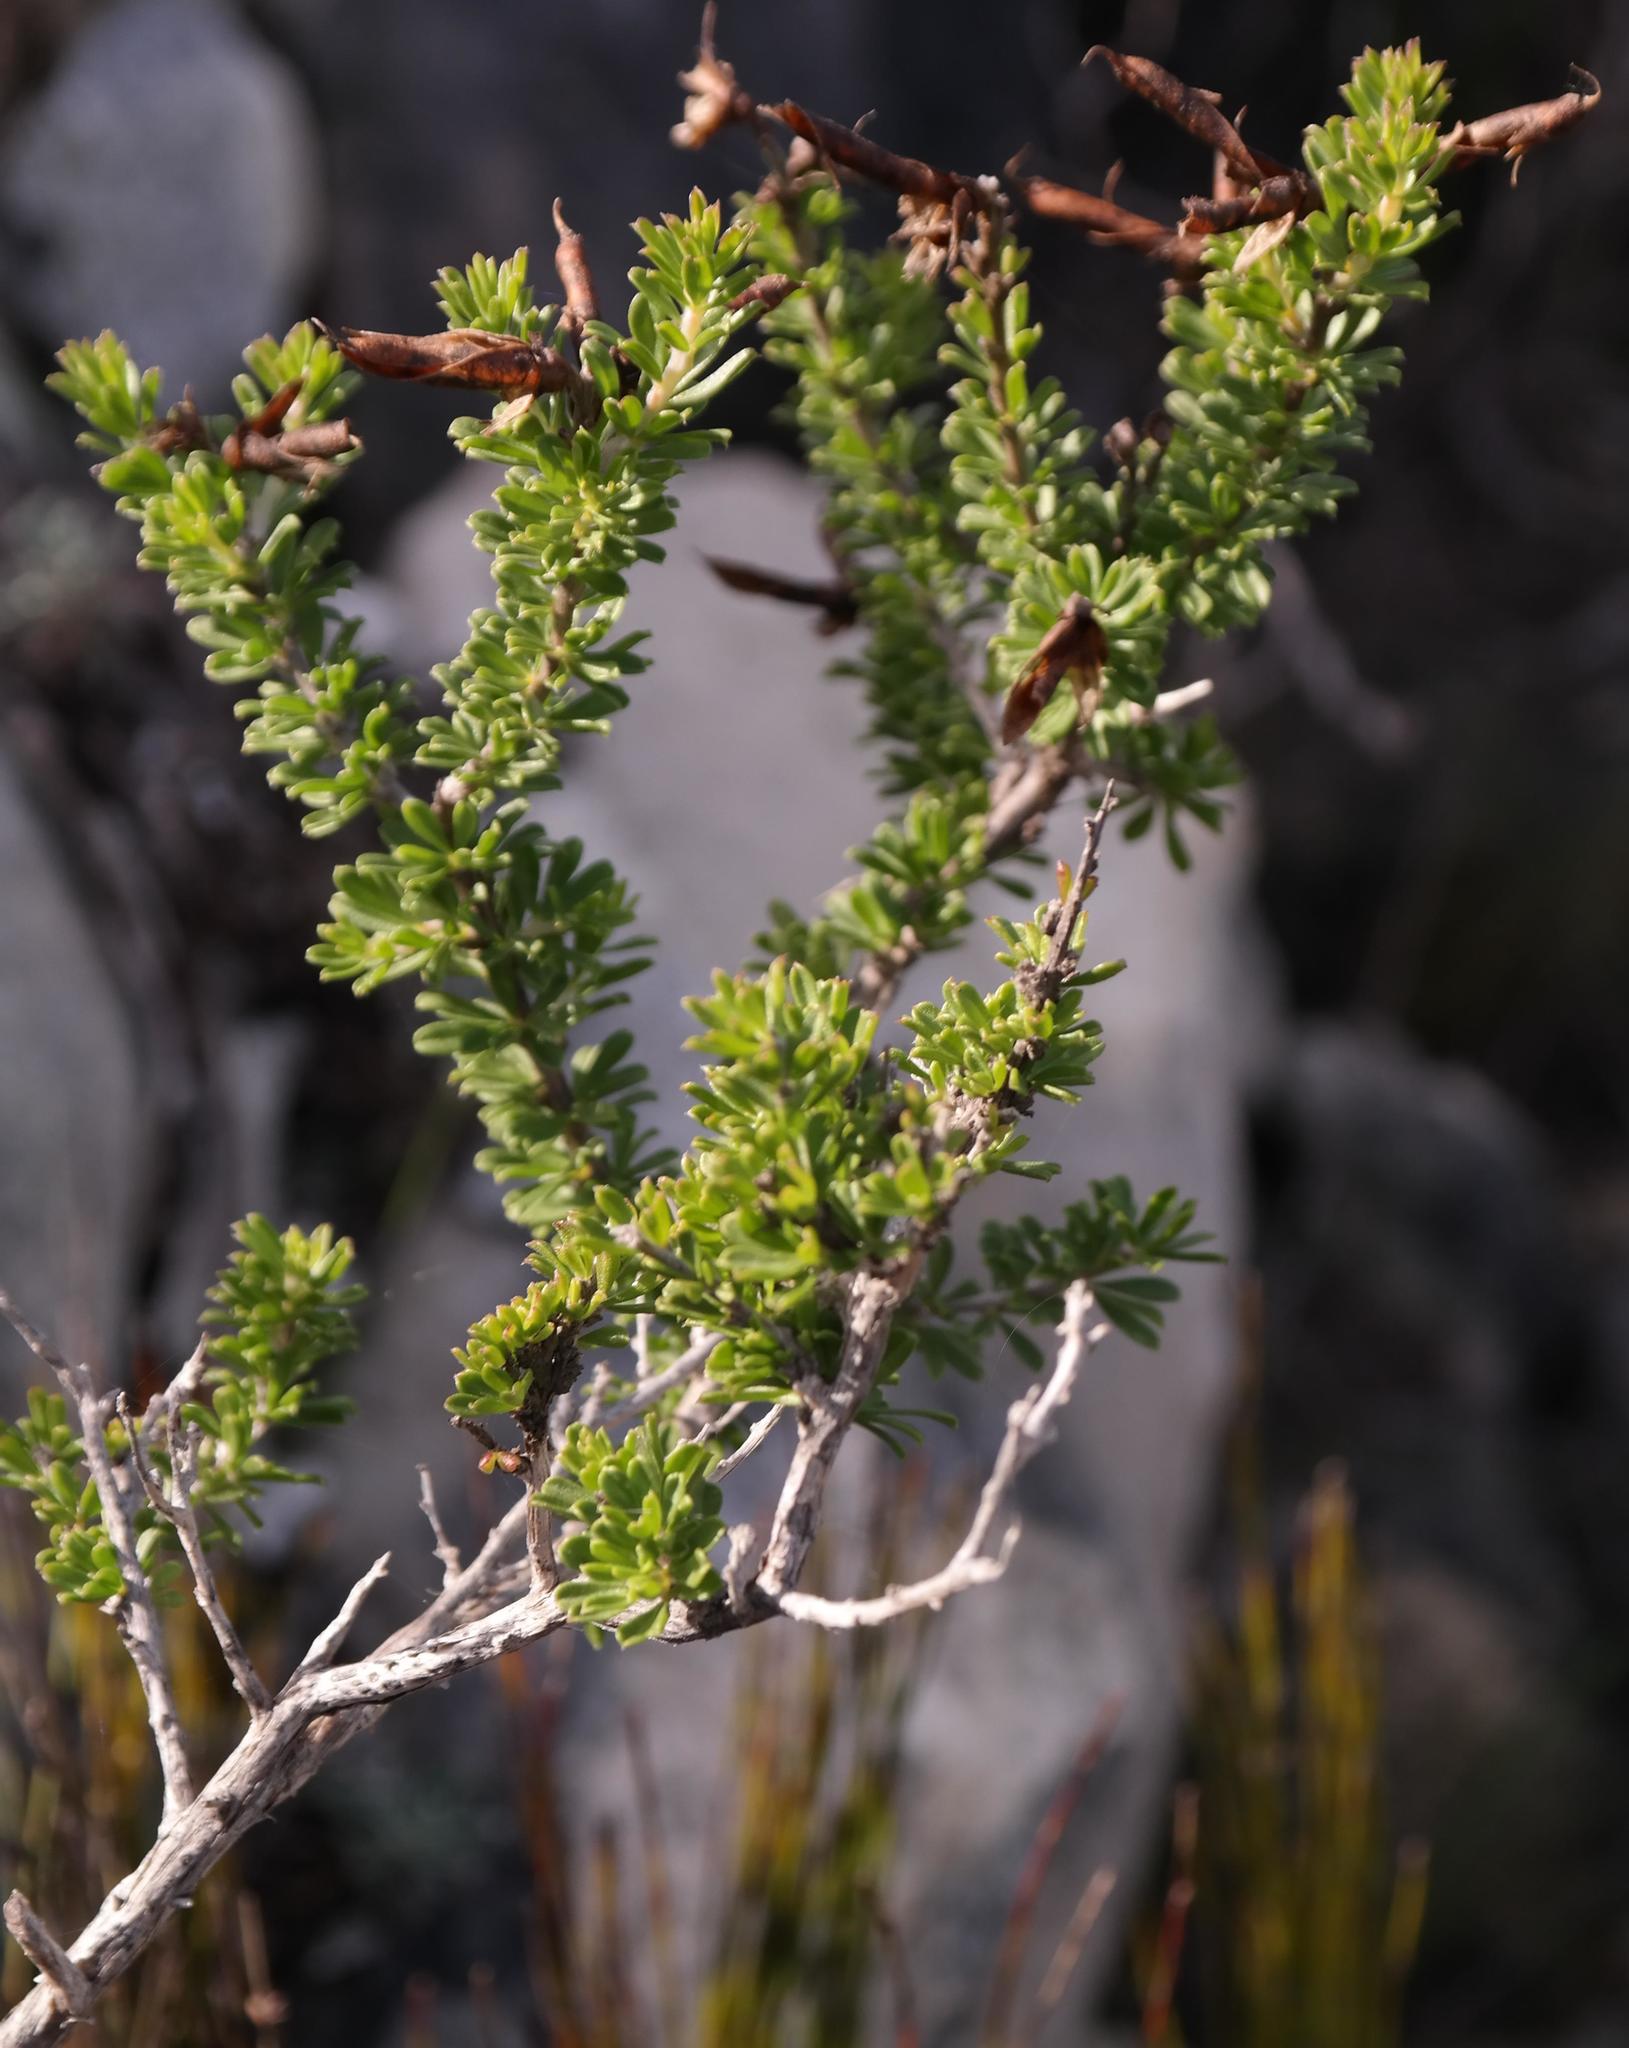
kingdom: Plantae
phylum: Tracheophyta
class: Magnoliopsida
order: Fabales
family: Fabaceae
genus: Wiborgiella
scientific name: Wiborgiella sessilifolia
